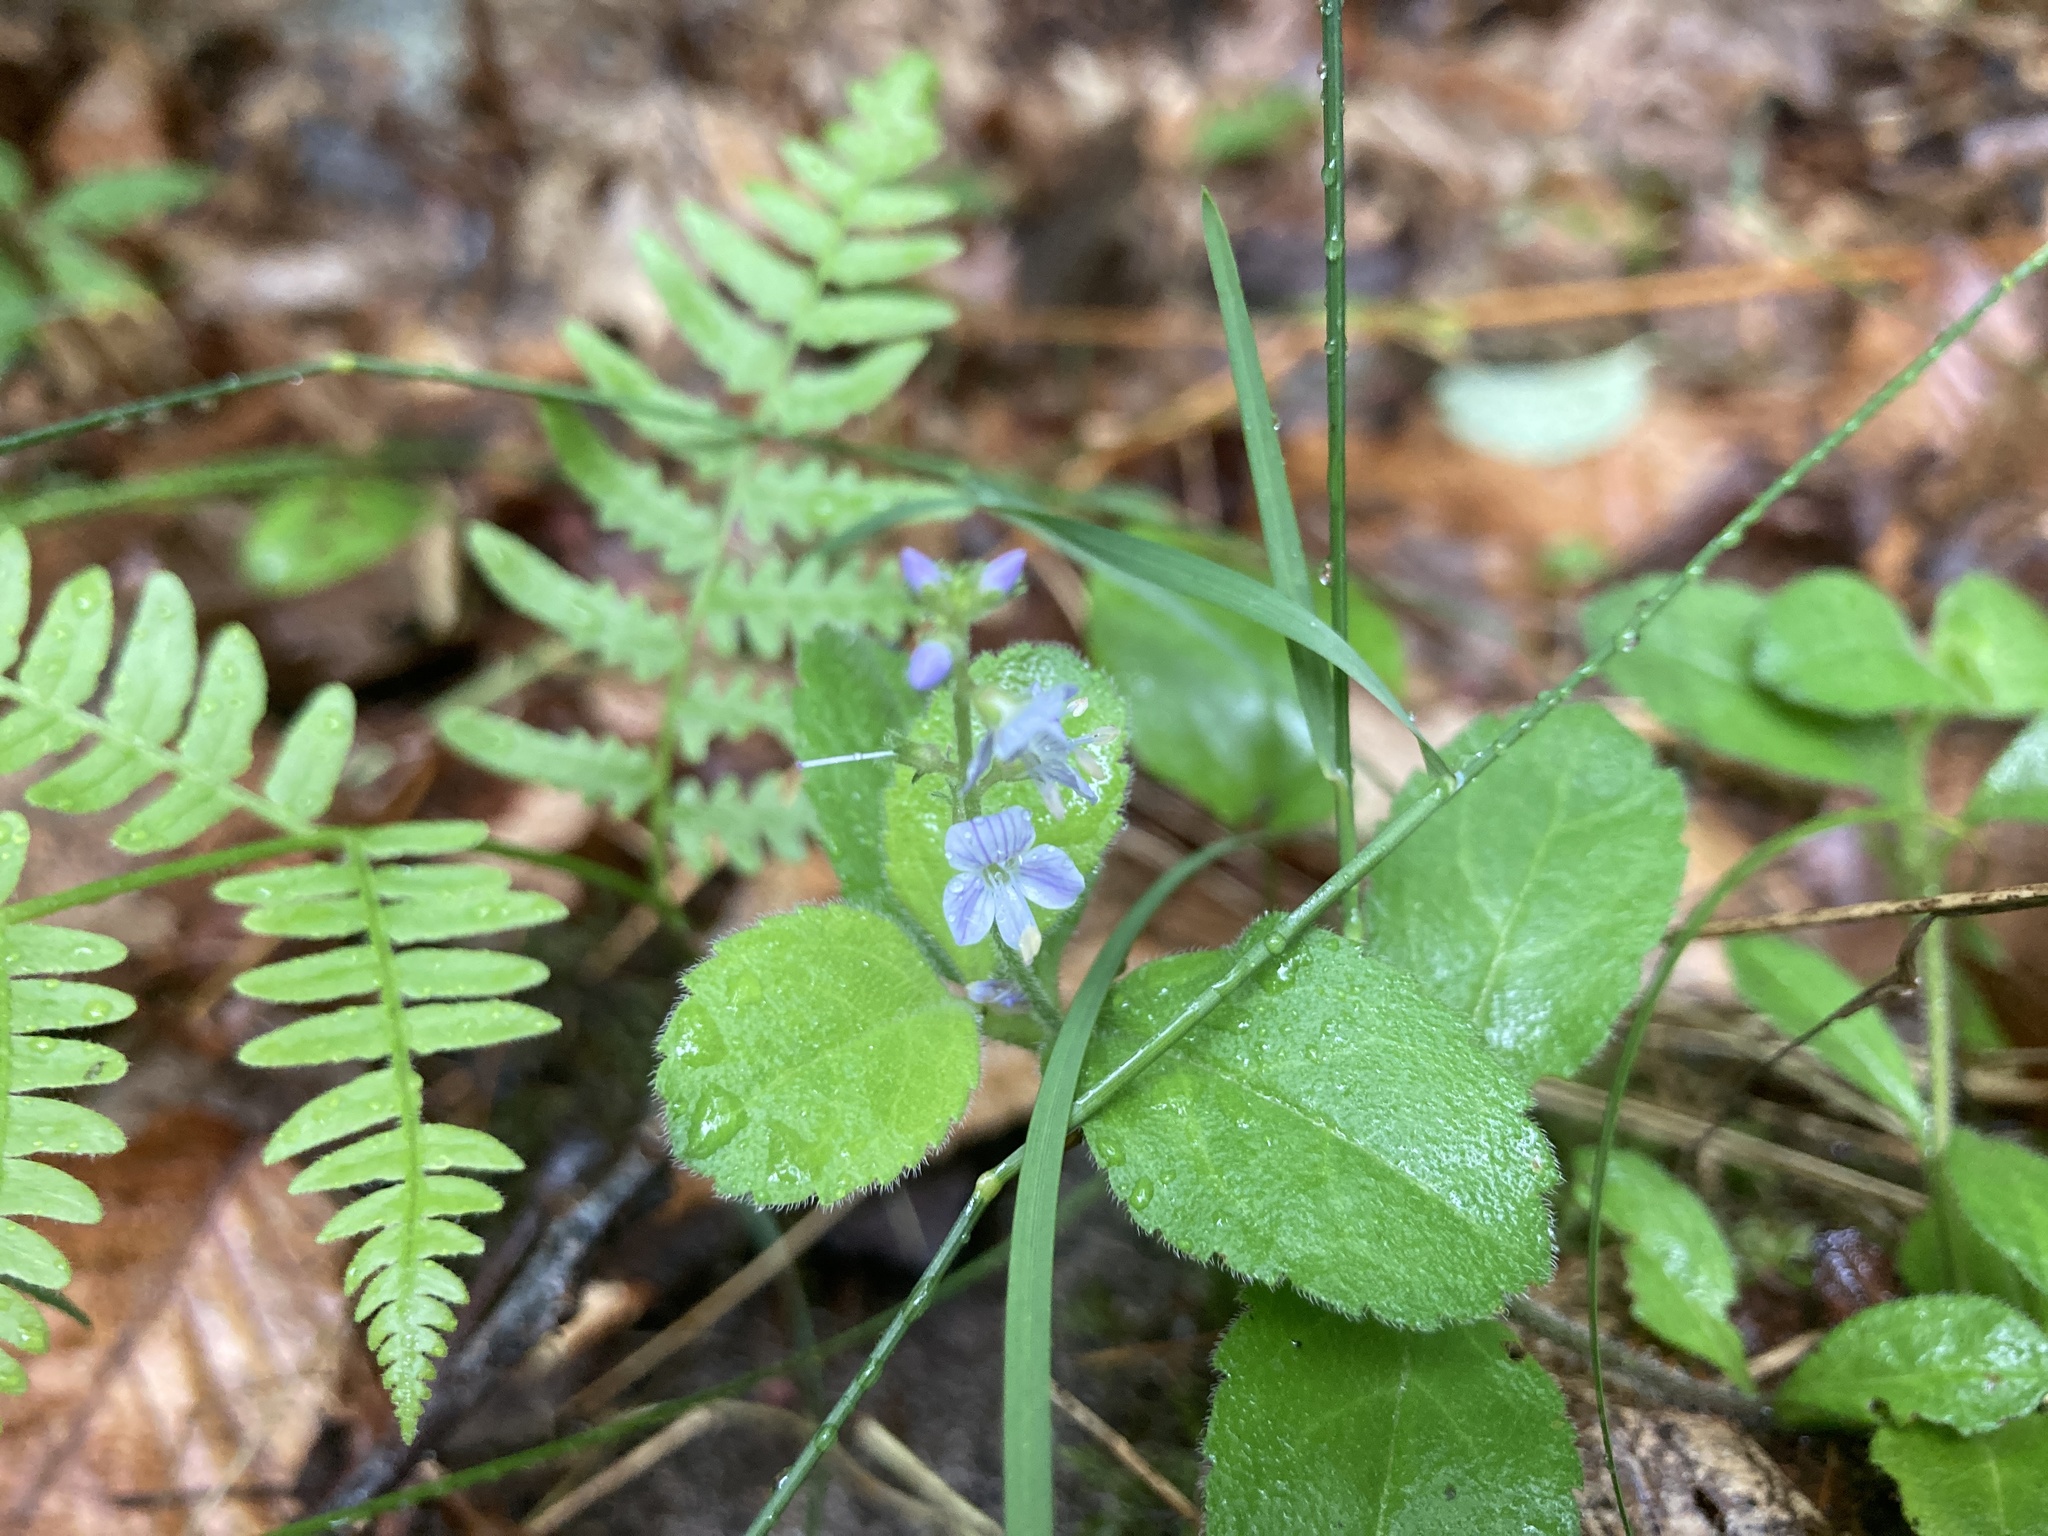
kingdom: Plantae
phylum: Tracheophyta
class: Magnoliopsida
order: Lamiales
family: Plantaginaceae
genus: Veronica
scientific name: Veronica officinalis
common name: Common speedwell
